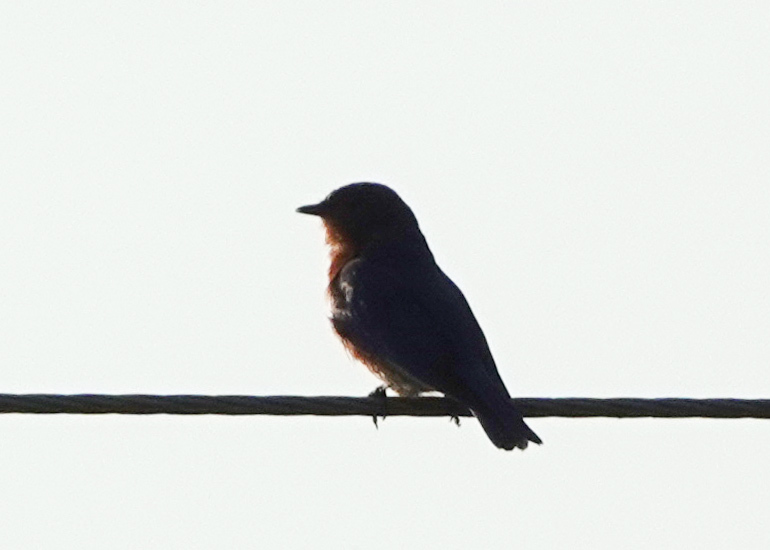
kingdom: Animalia
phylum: Chordata
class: Aves
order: Passeriformes
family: Turdidae
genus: Sialia
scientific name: Sialia sialis
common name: Eastern bluebird
